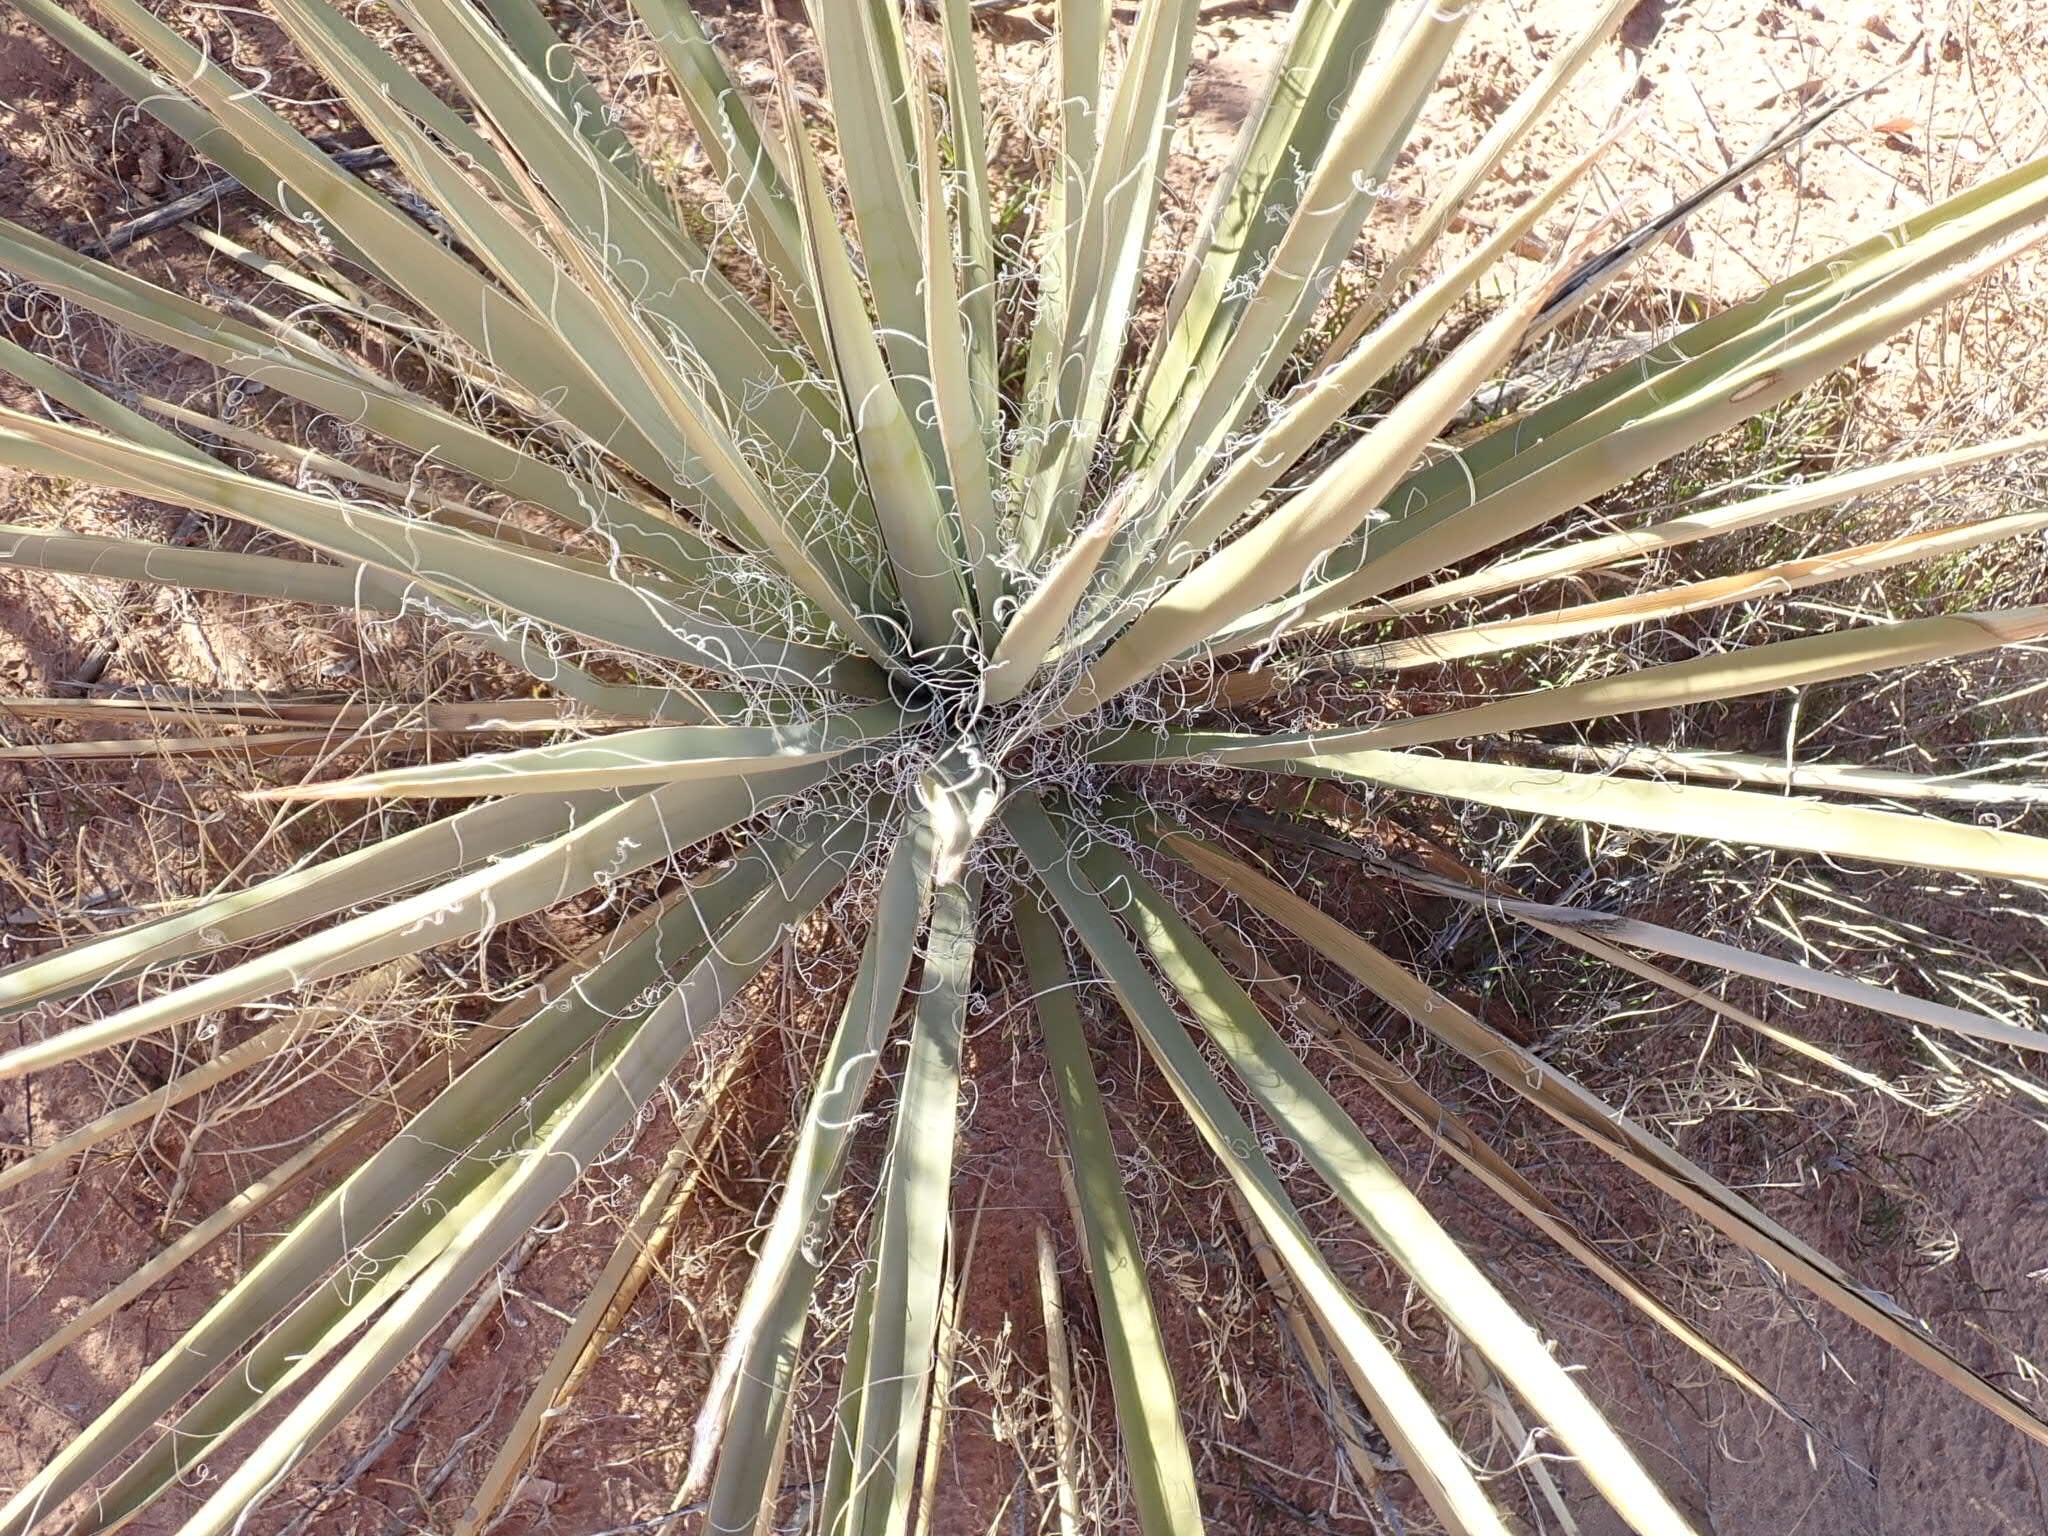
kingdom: Plantae
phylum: Tracheophyta
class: Liliopsida
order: Asparagales
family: Asparagaceae
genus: Yucca
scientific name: Yucca harrimaniae
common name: Harriman's yucca
